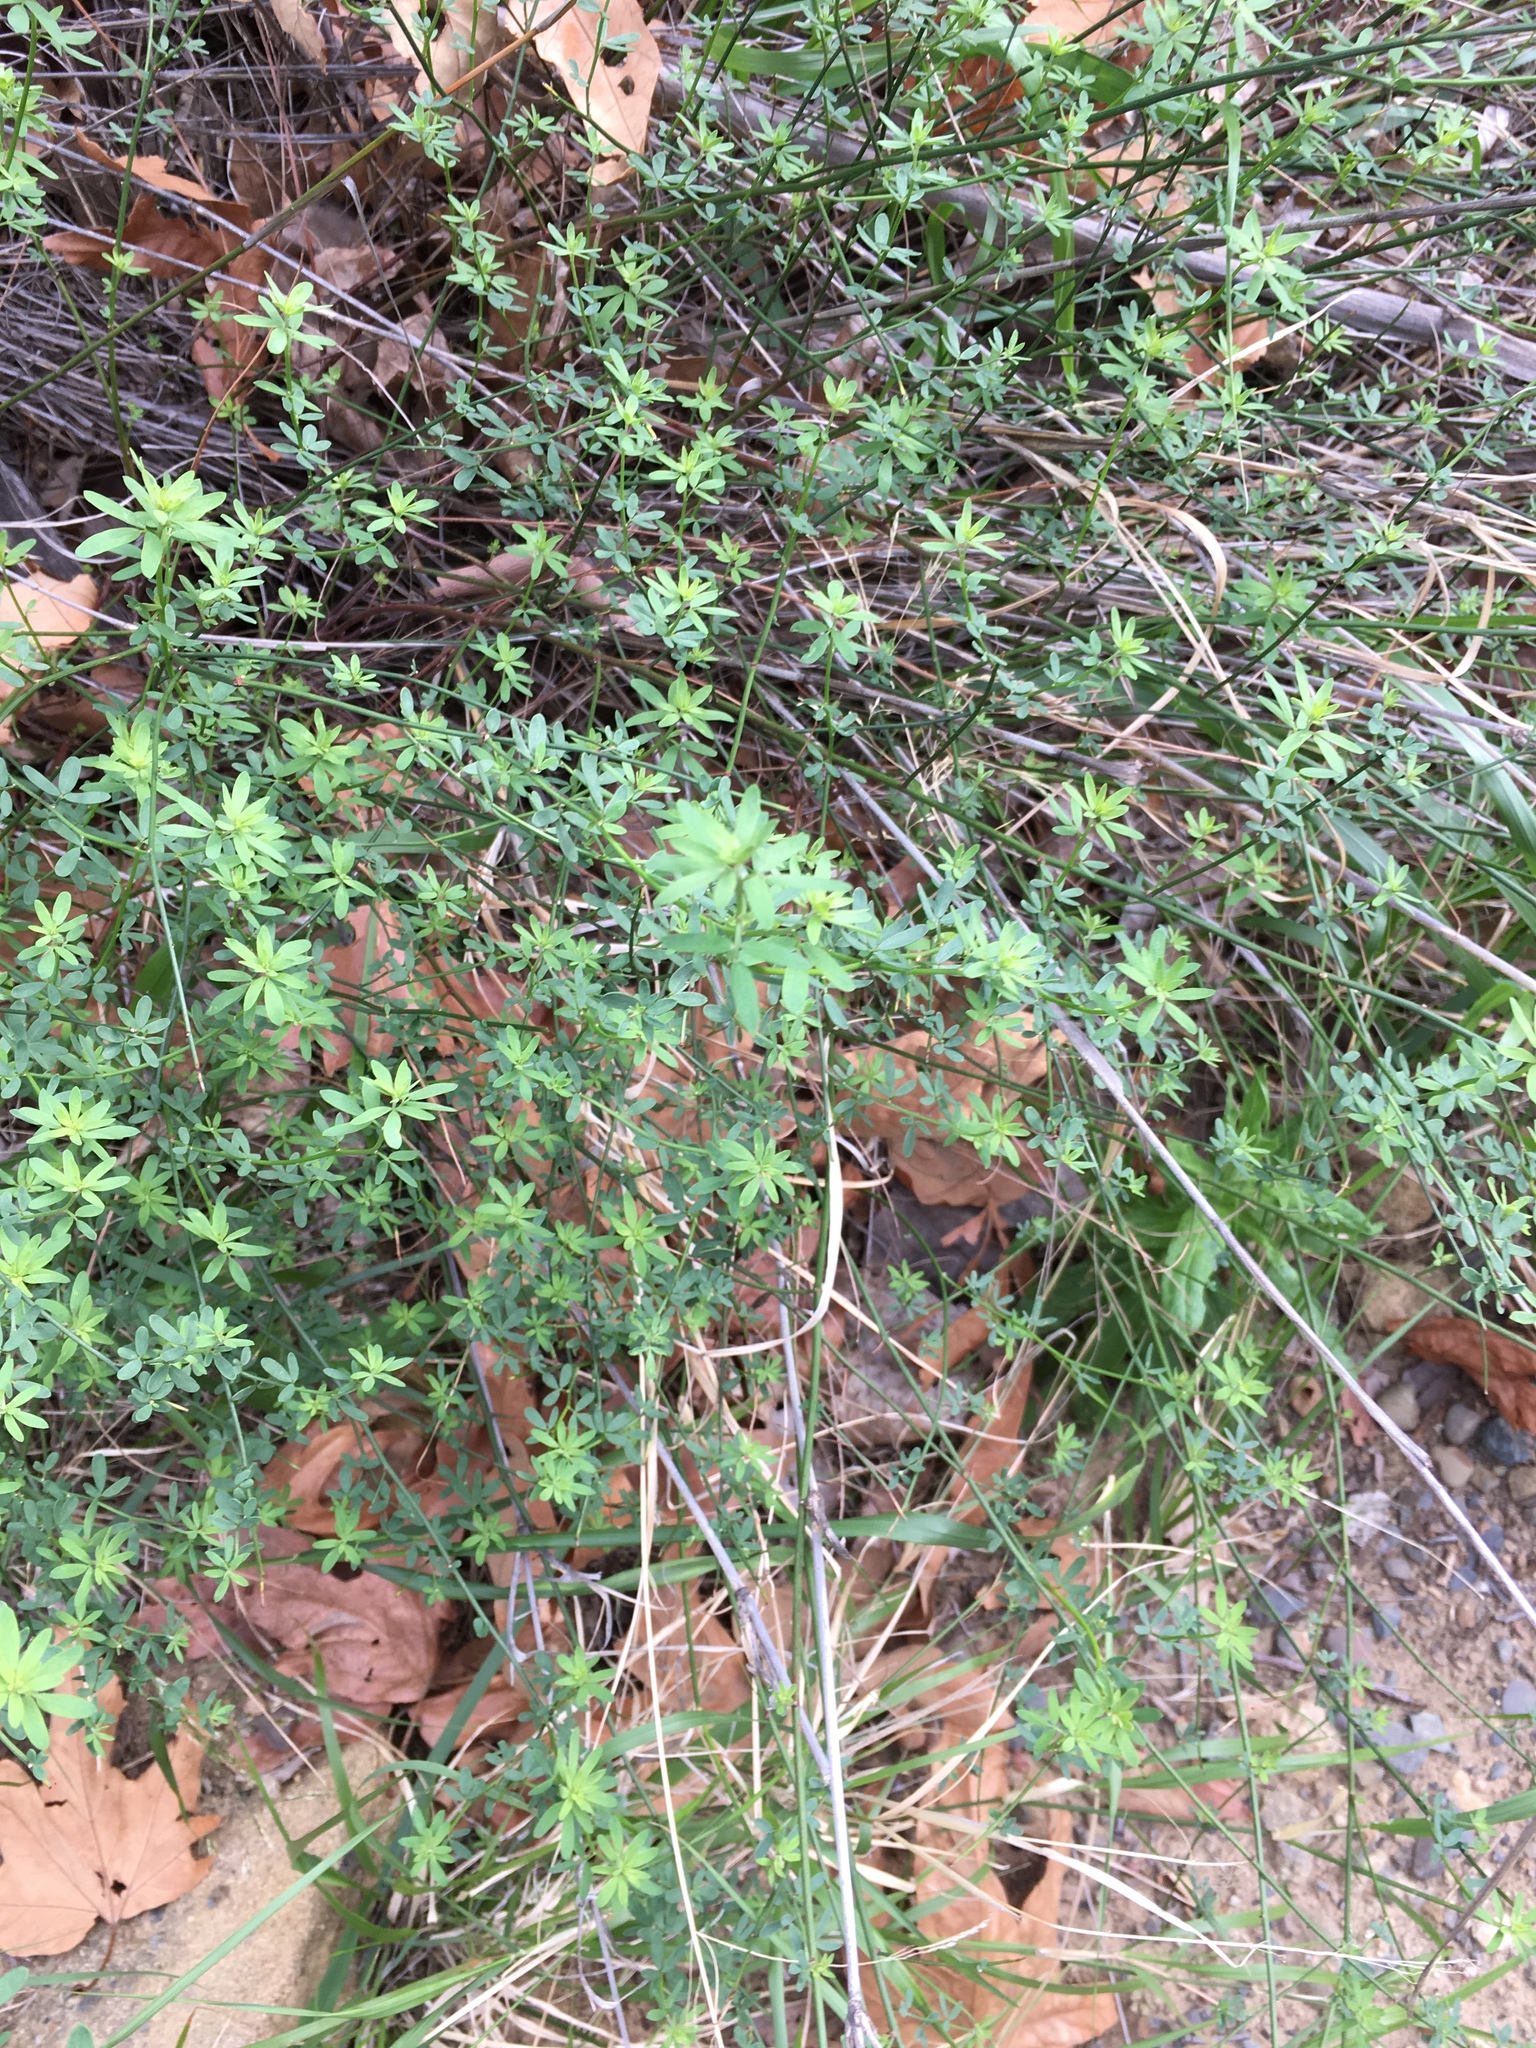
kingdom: Plantae
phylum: Tracheophyta
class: Magnoliopsida
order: Fabales
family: Fabaceae
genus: Acmispon
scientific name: Acmispon glaber
